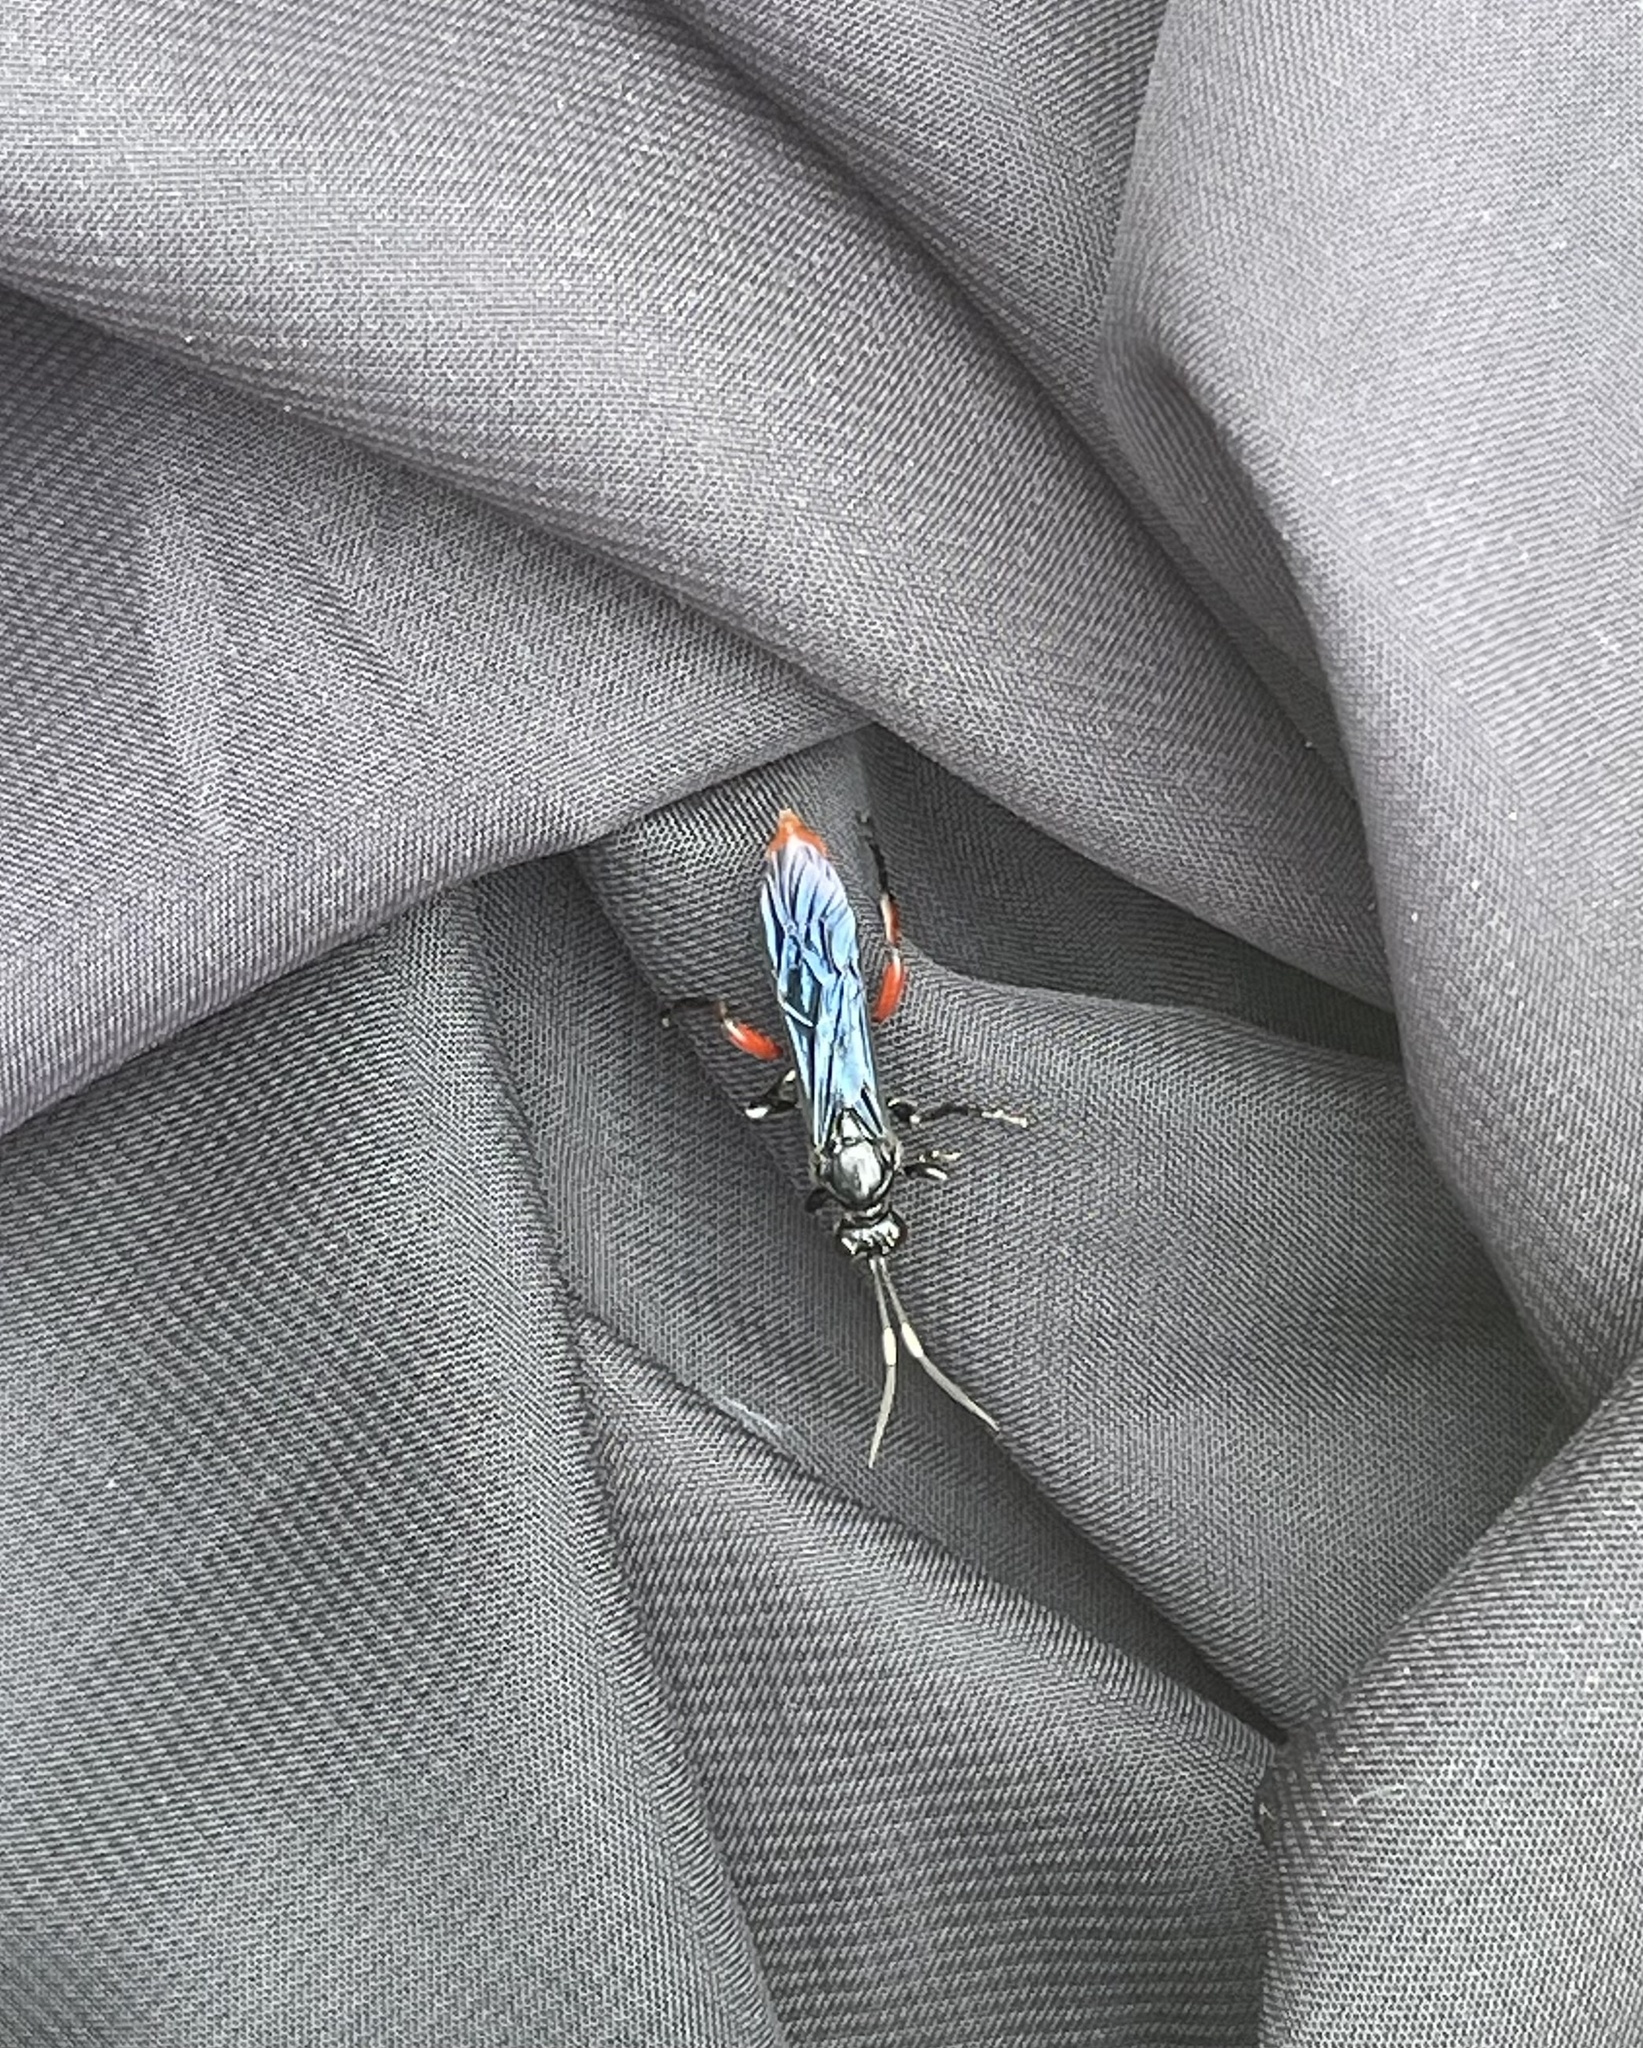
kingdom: Animalia
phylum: Arthropoda
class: Insecta
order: Hymenoptera
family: Ichneumonidae
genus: Limonethe
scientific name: Limonethe maurator
